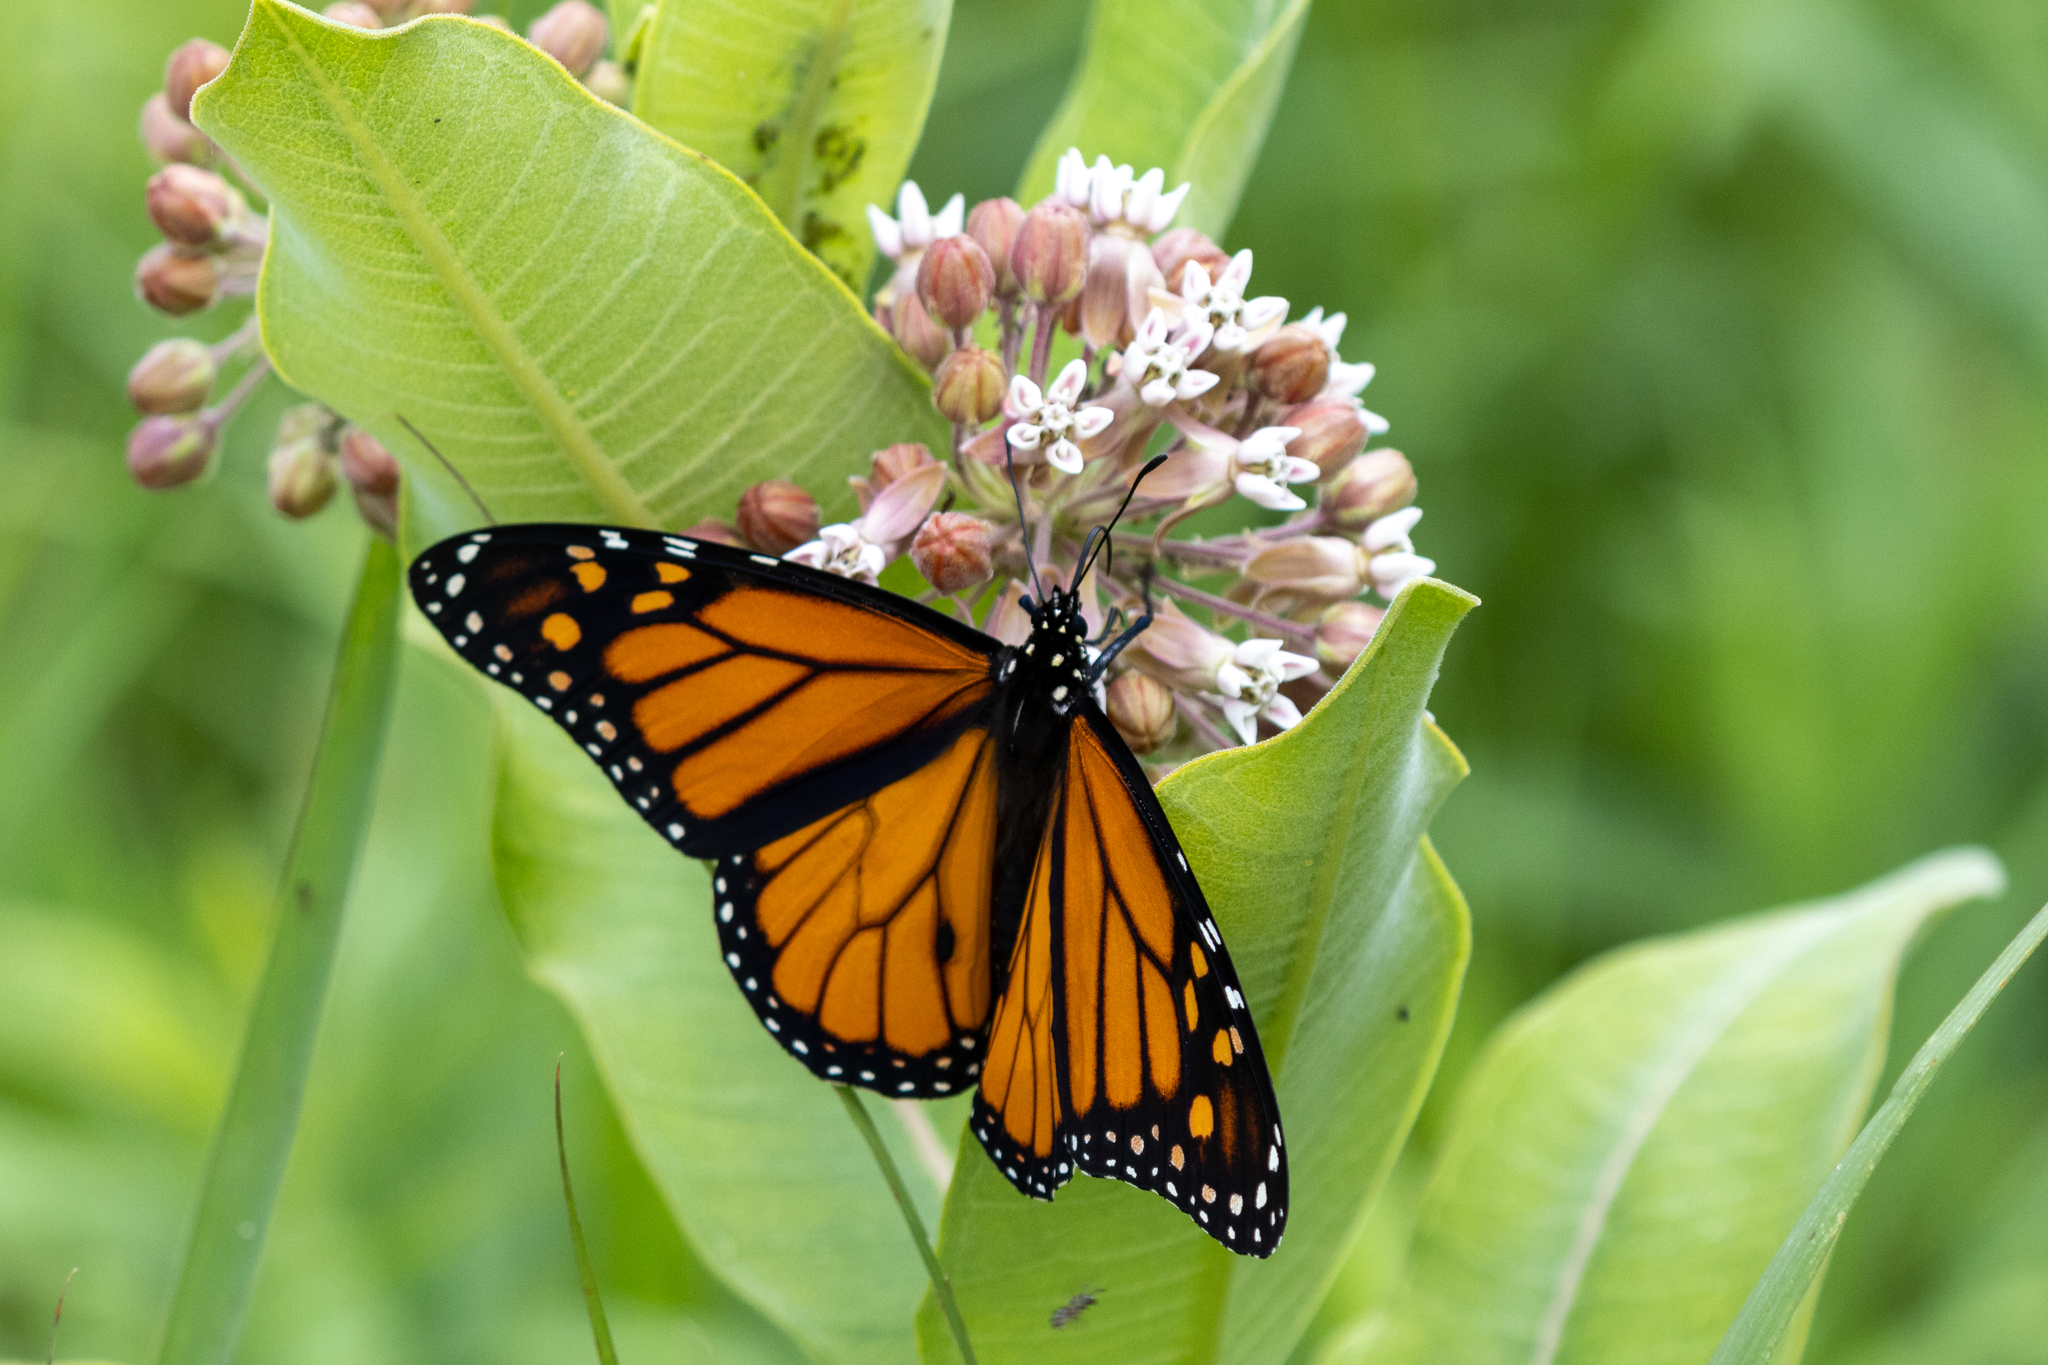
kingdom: Animalia
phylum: Arthropoda
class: Insecta
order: Lepidoptera
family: Nymphalidae
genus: Danaus
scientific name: Danaus plexippus
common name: Monarch
